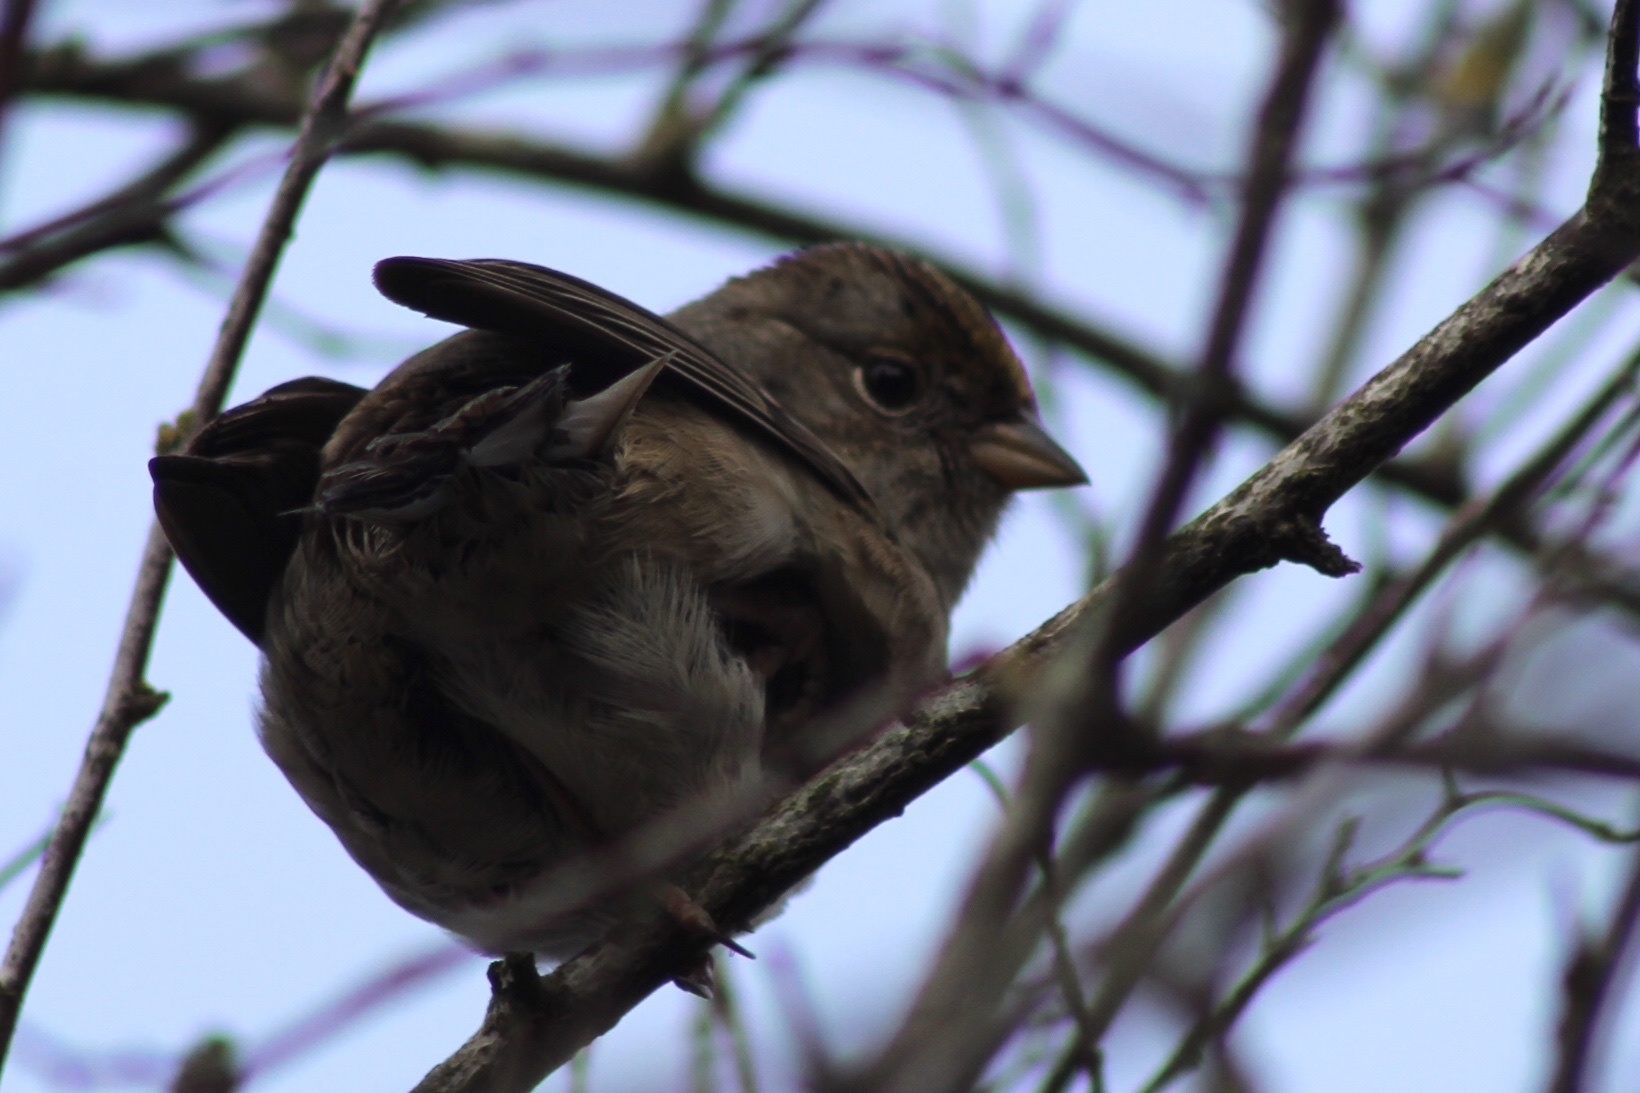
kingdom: Animalia
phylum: Chordata
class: Aves
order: Passeriformes
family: Passerellidae
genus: Zonotrichia
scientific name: Zonotrichia atricapilla
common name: Golden-crowned sparrow
